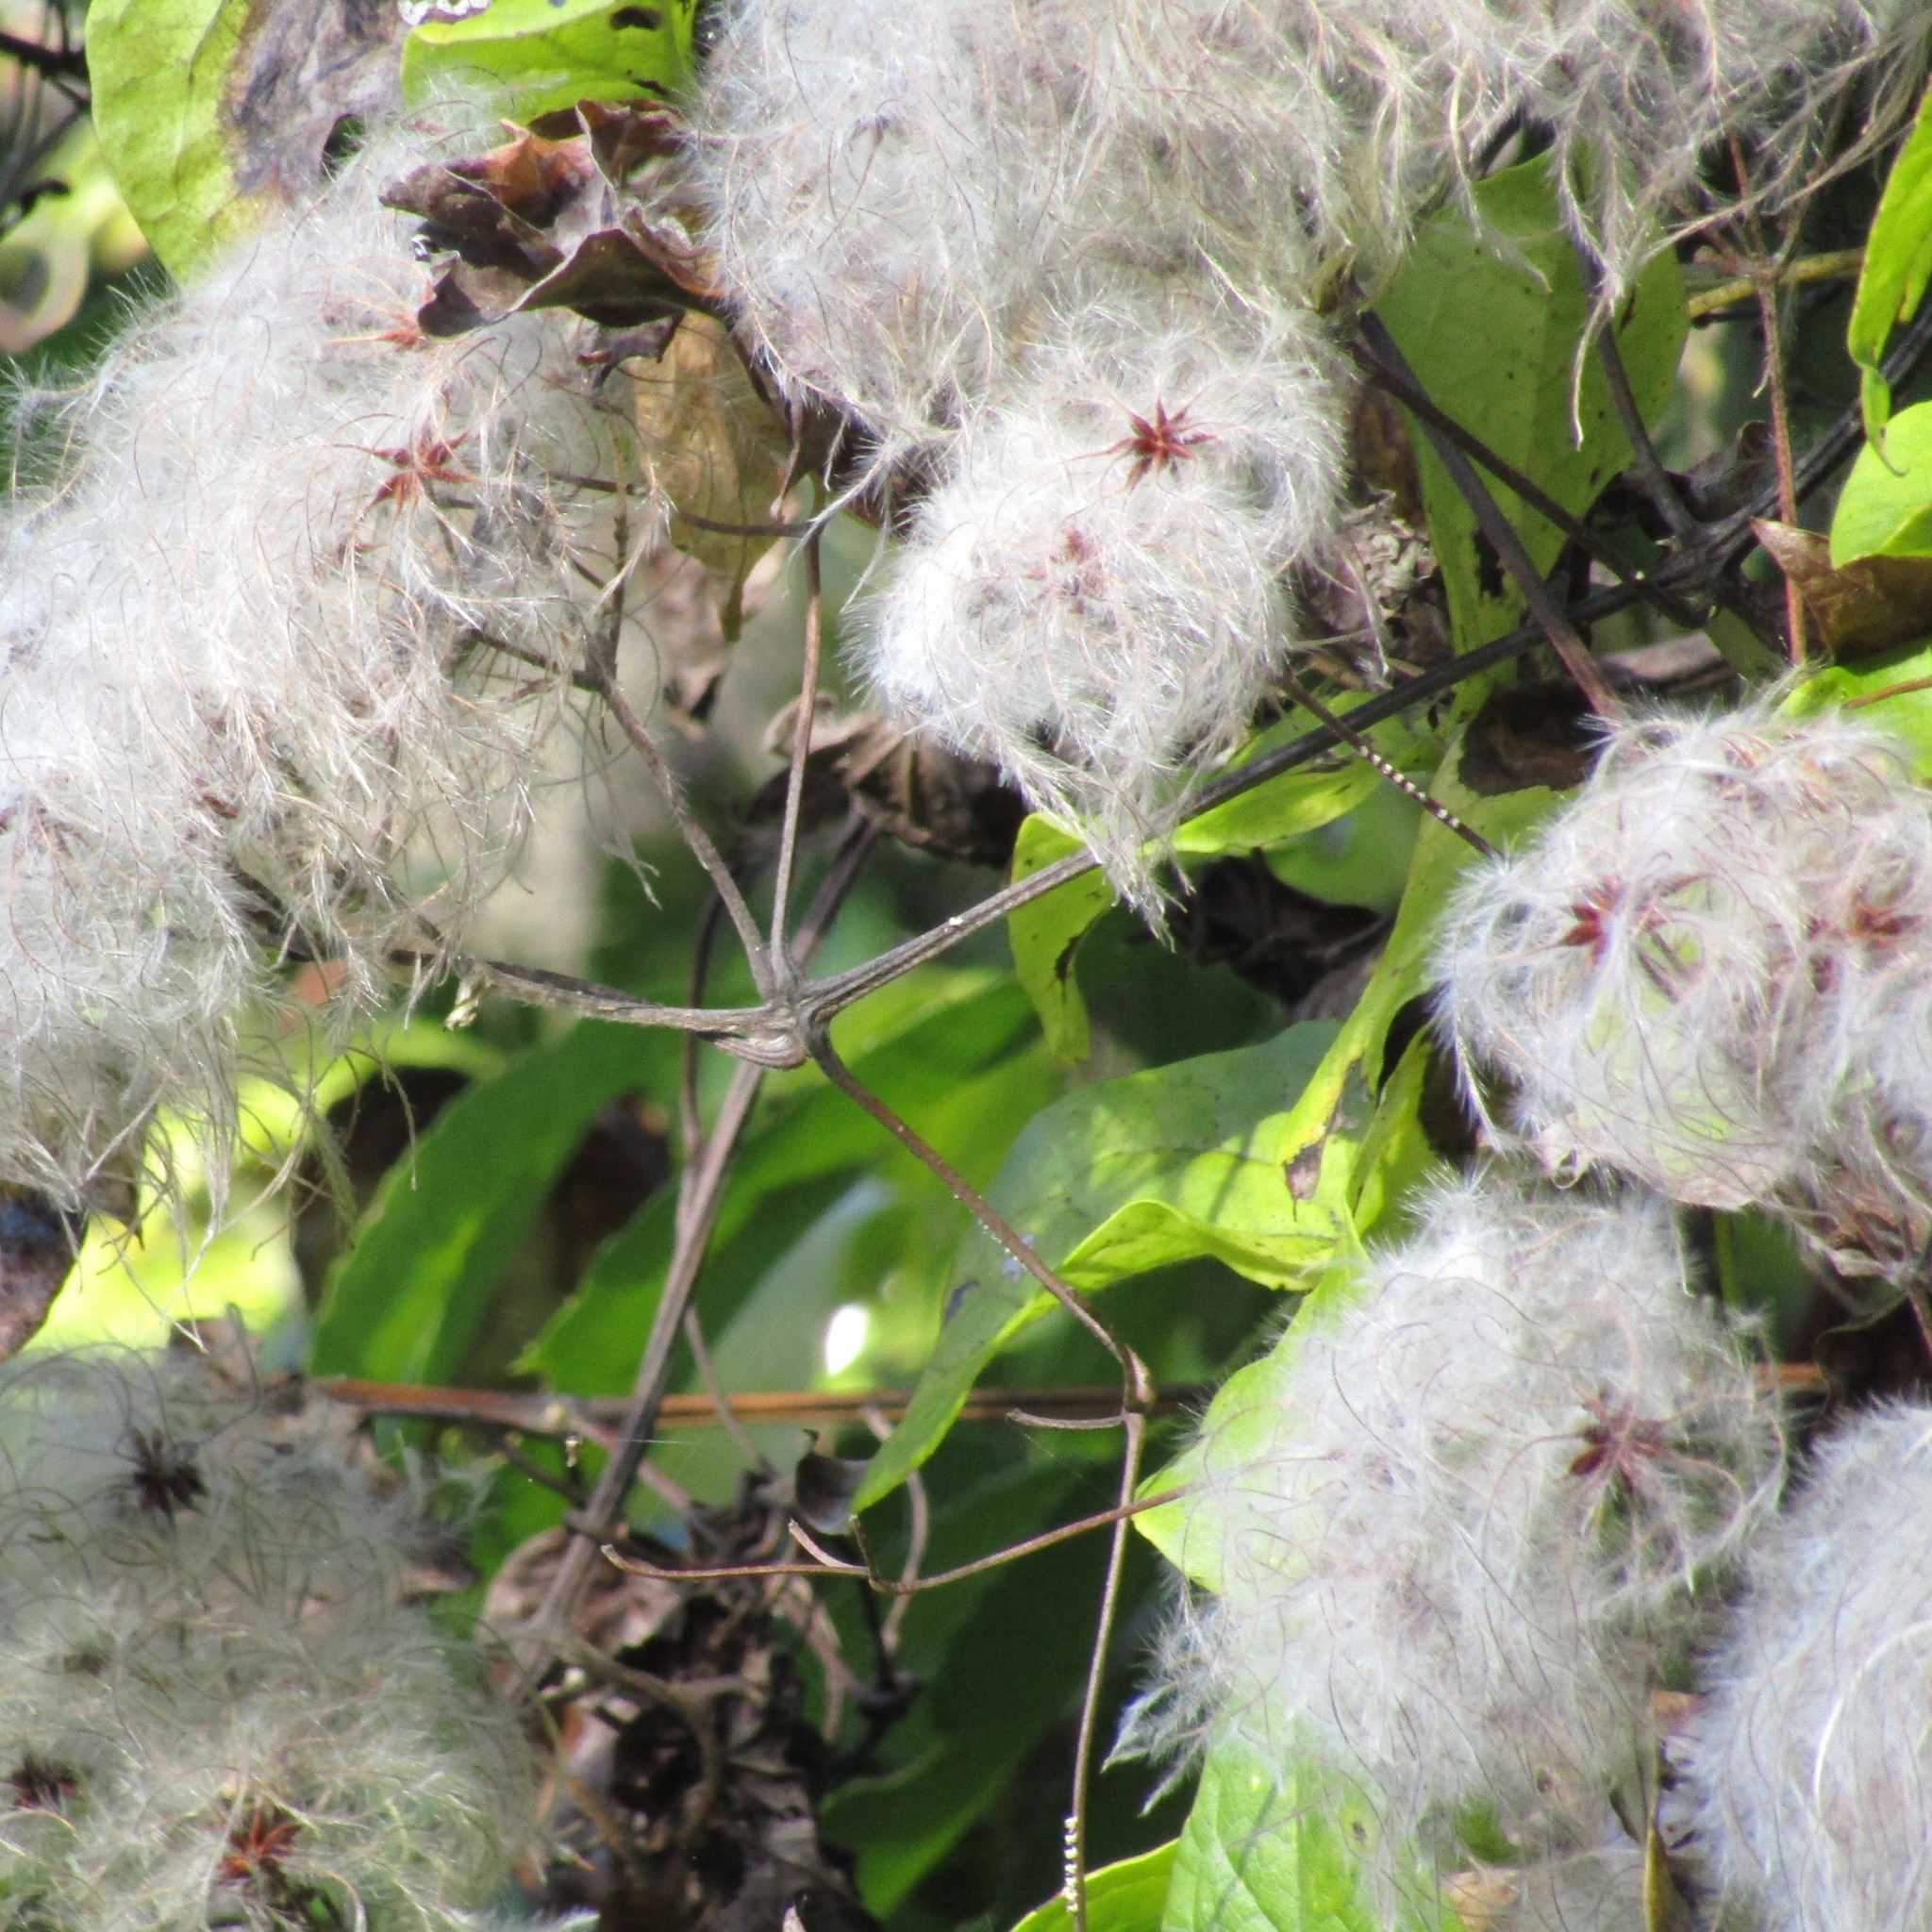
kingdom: Plantae
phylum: Tracheophyta
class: Magnoliopsida
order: Ranunculales
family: Ranunculaceae
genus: Clematis
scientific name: Clematis vitalba
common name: Evergreen clematis
